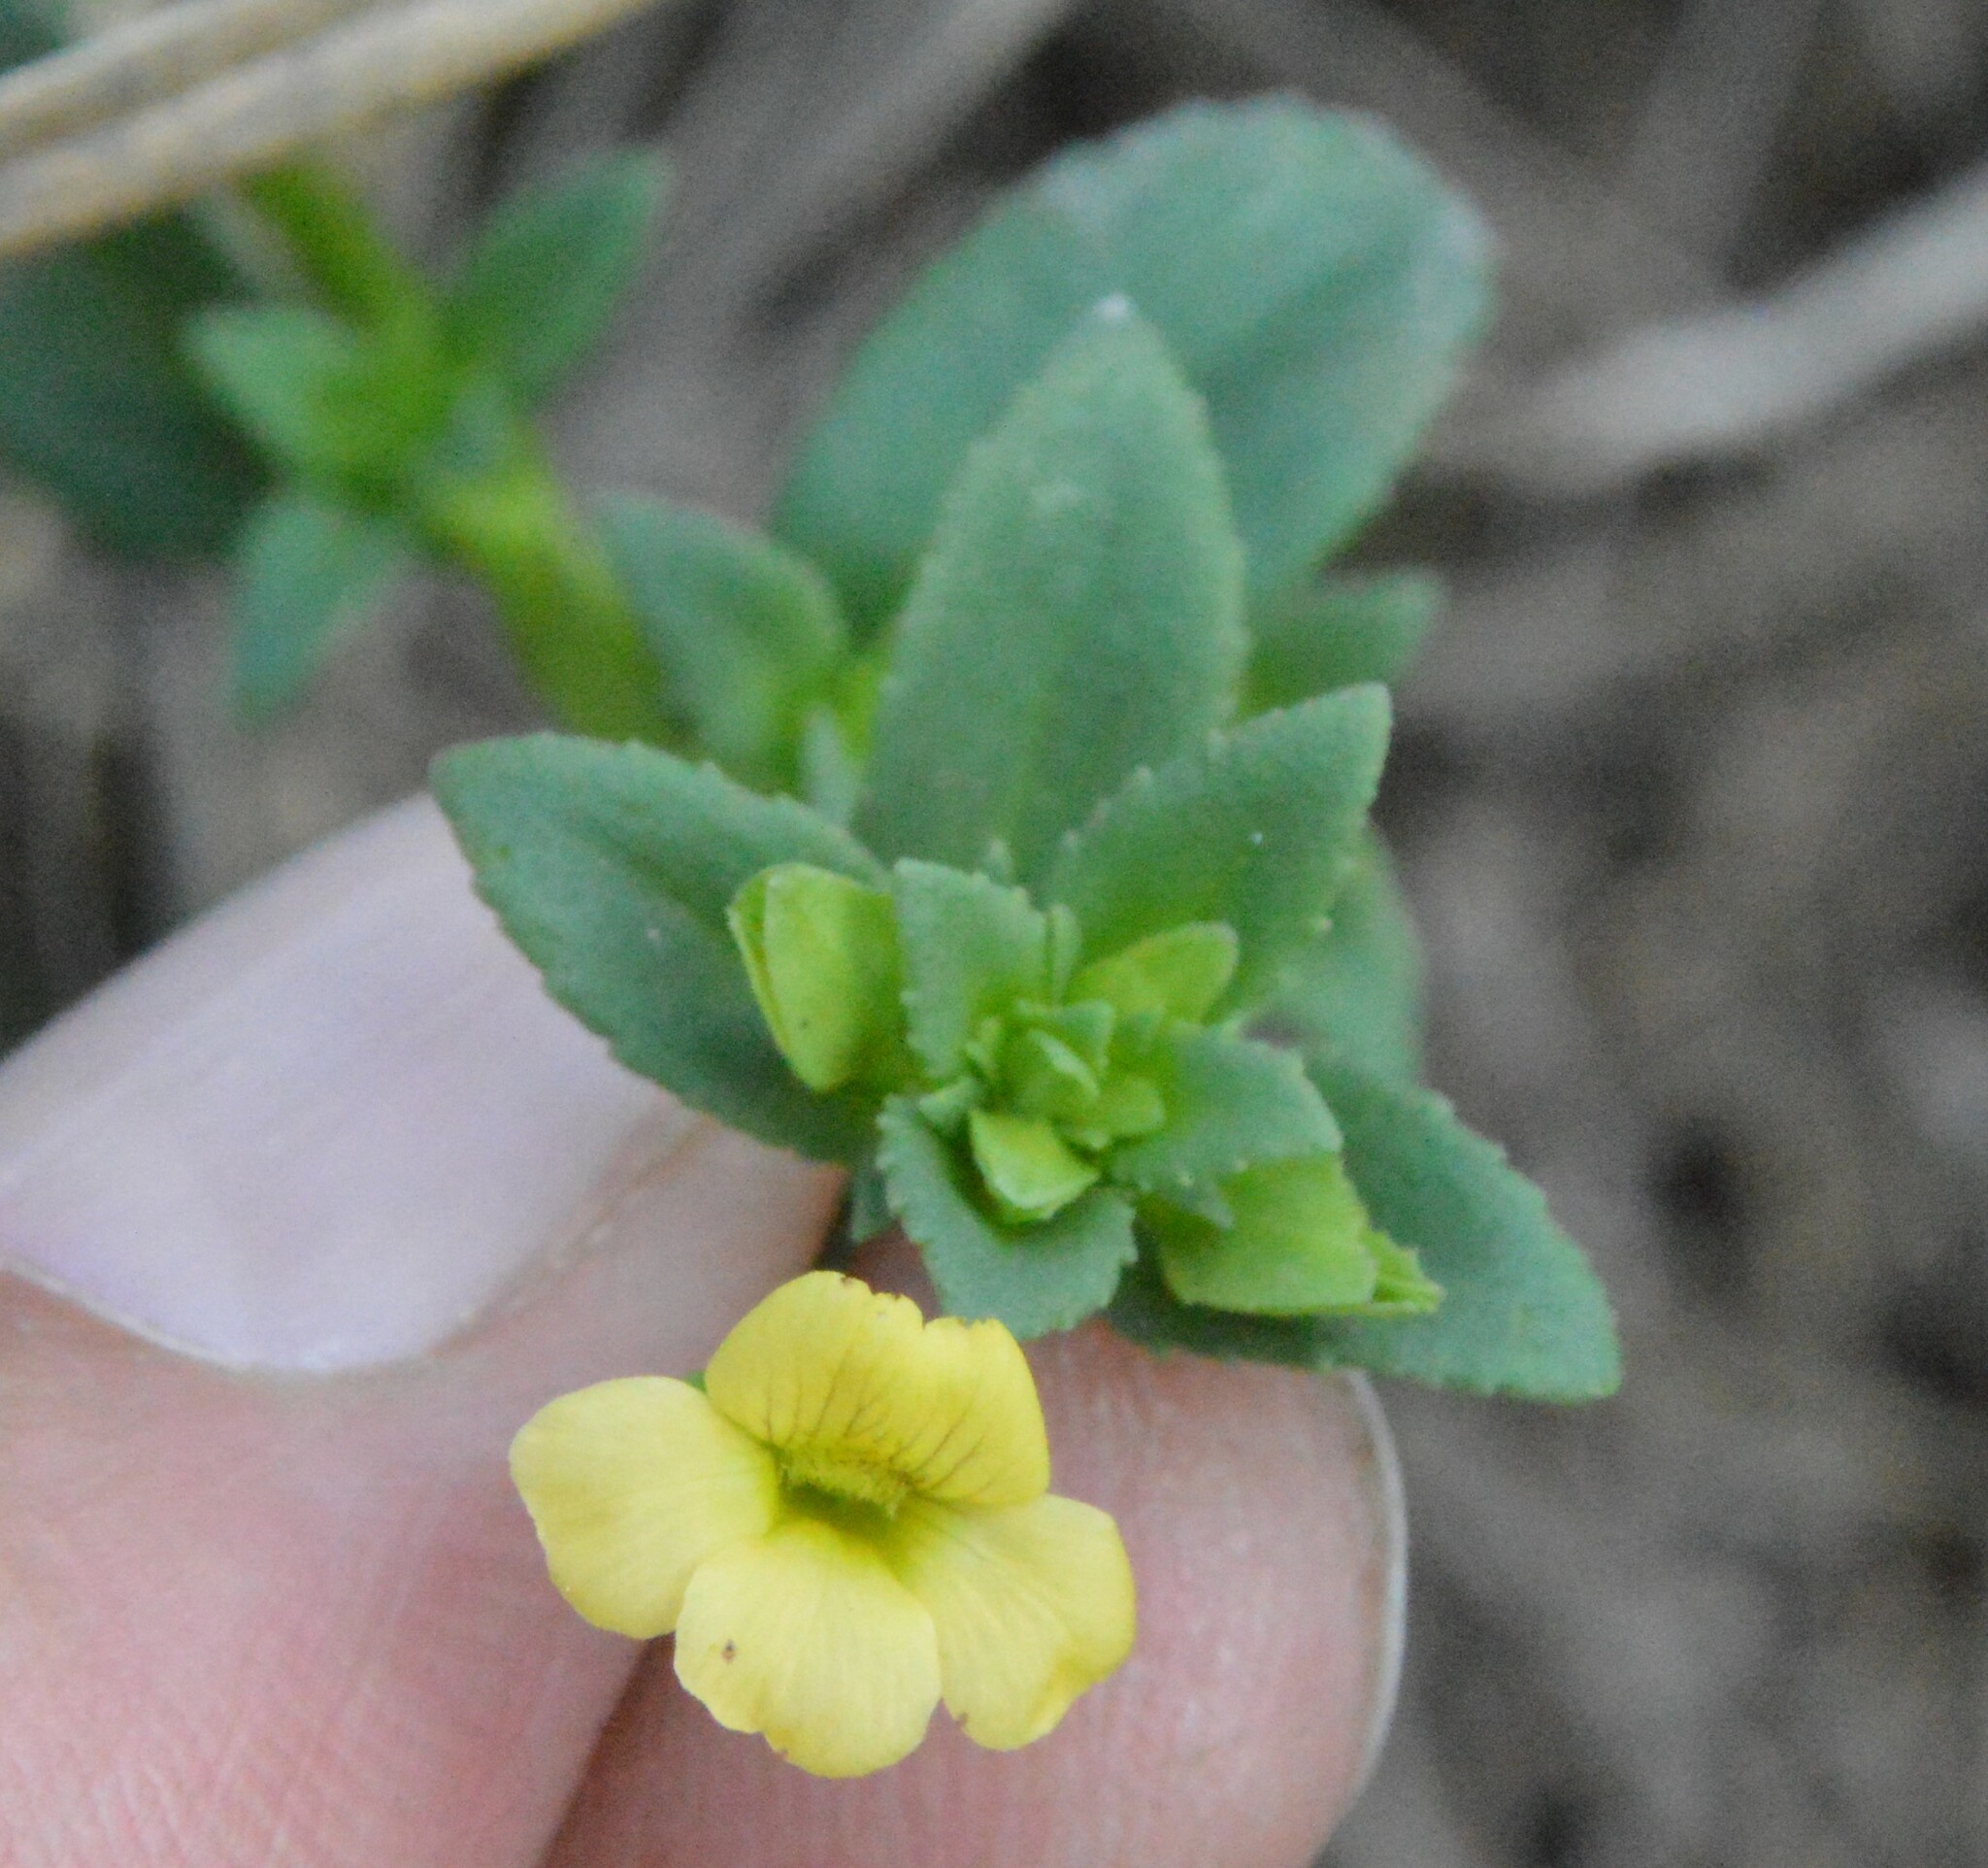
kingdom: Plantae
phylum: Tracheophyta
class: Magnoliopsida
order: Lamiales
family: Plantaginaceae
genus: Mecardonia
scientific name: Mecardonia procumbens
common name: Baby jump-up
